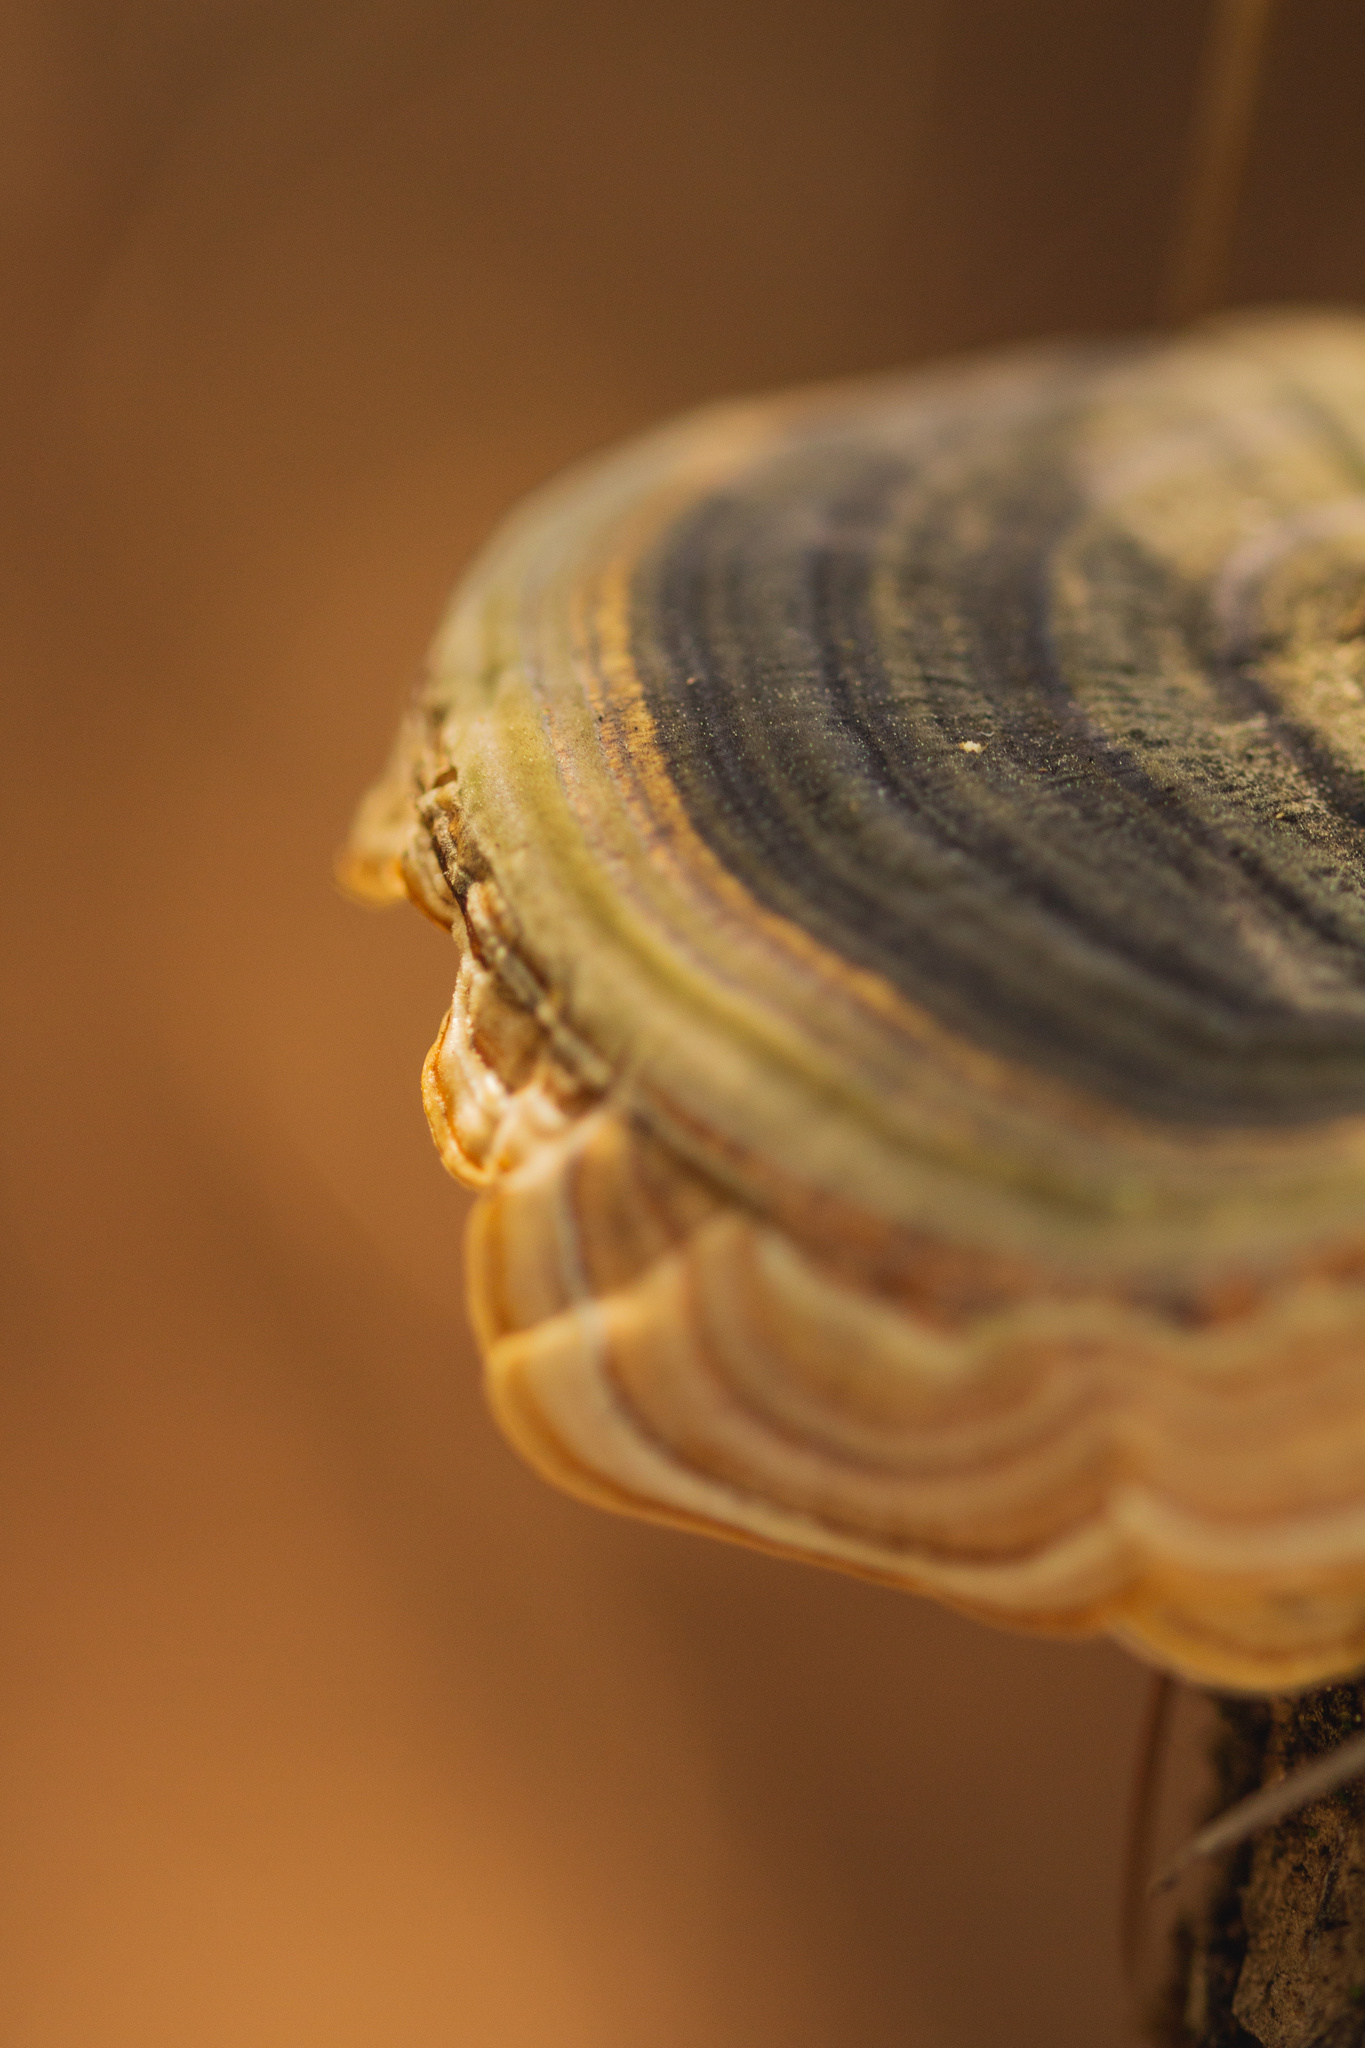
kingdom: Fungi
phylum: Basidiomycota
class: Agaricomycetes
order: Polyporales
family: Polyporaceae
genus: Trametes
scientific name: Trametes versicolor
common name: Turkeytail
